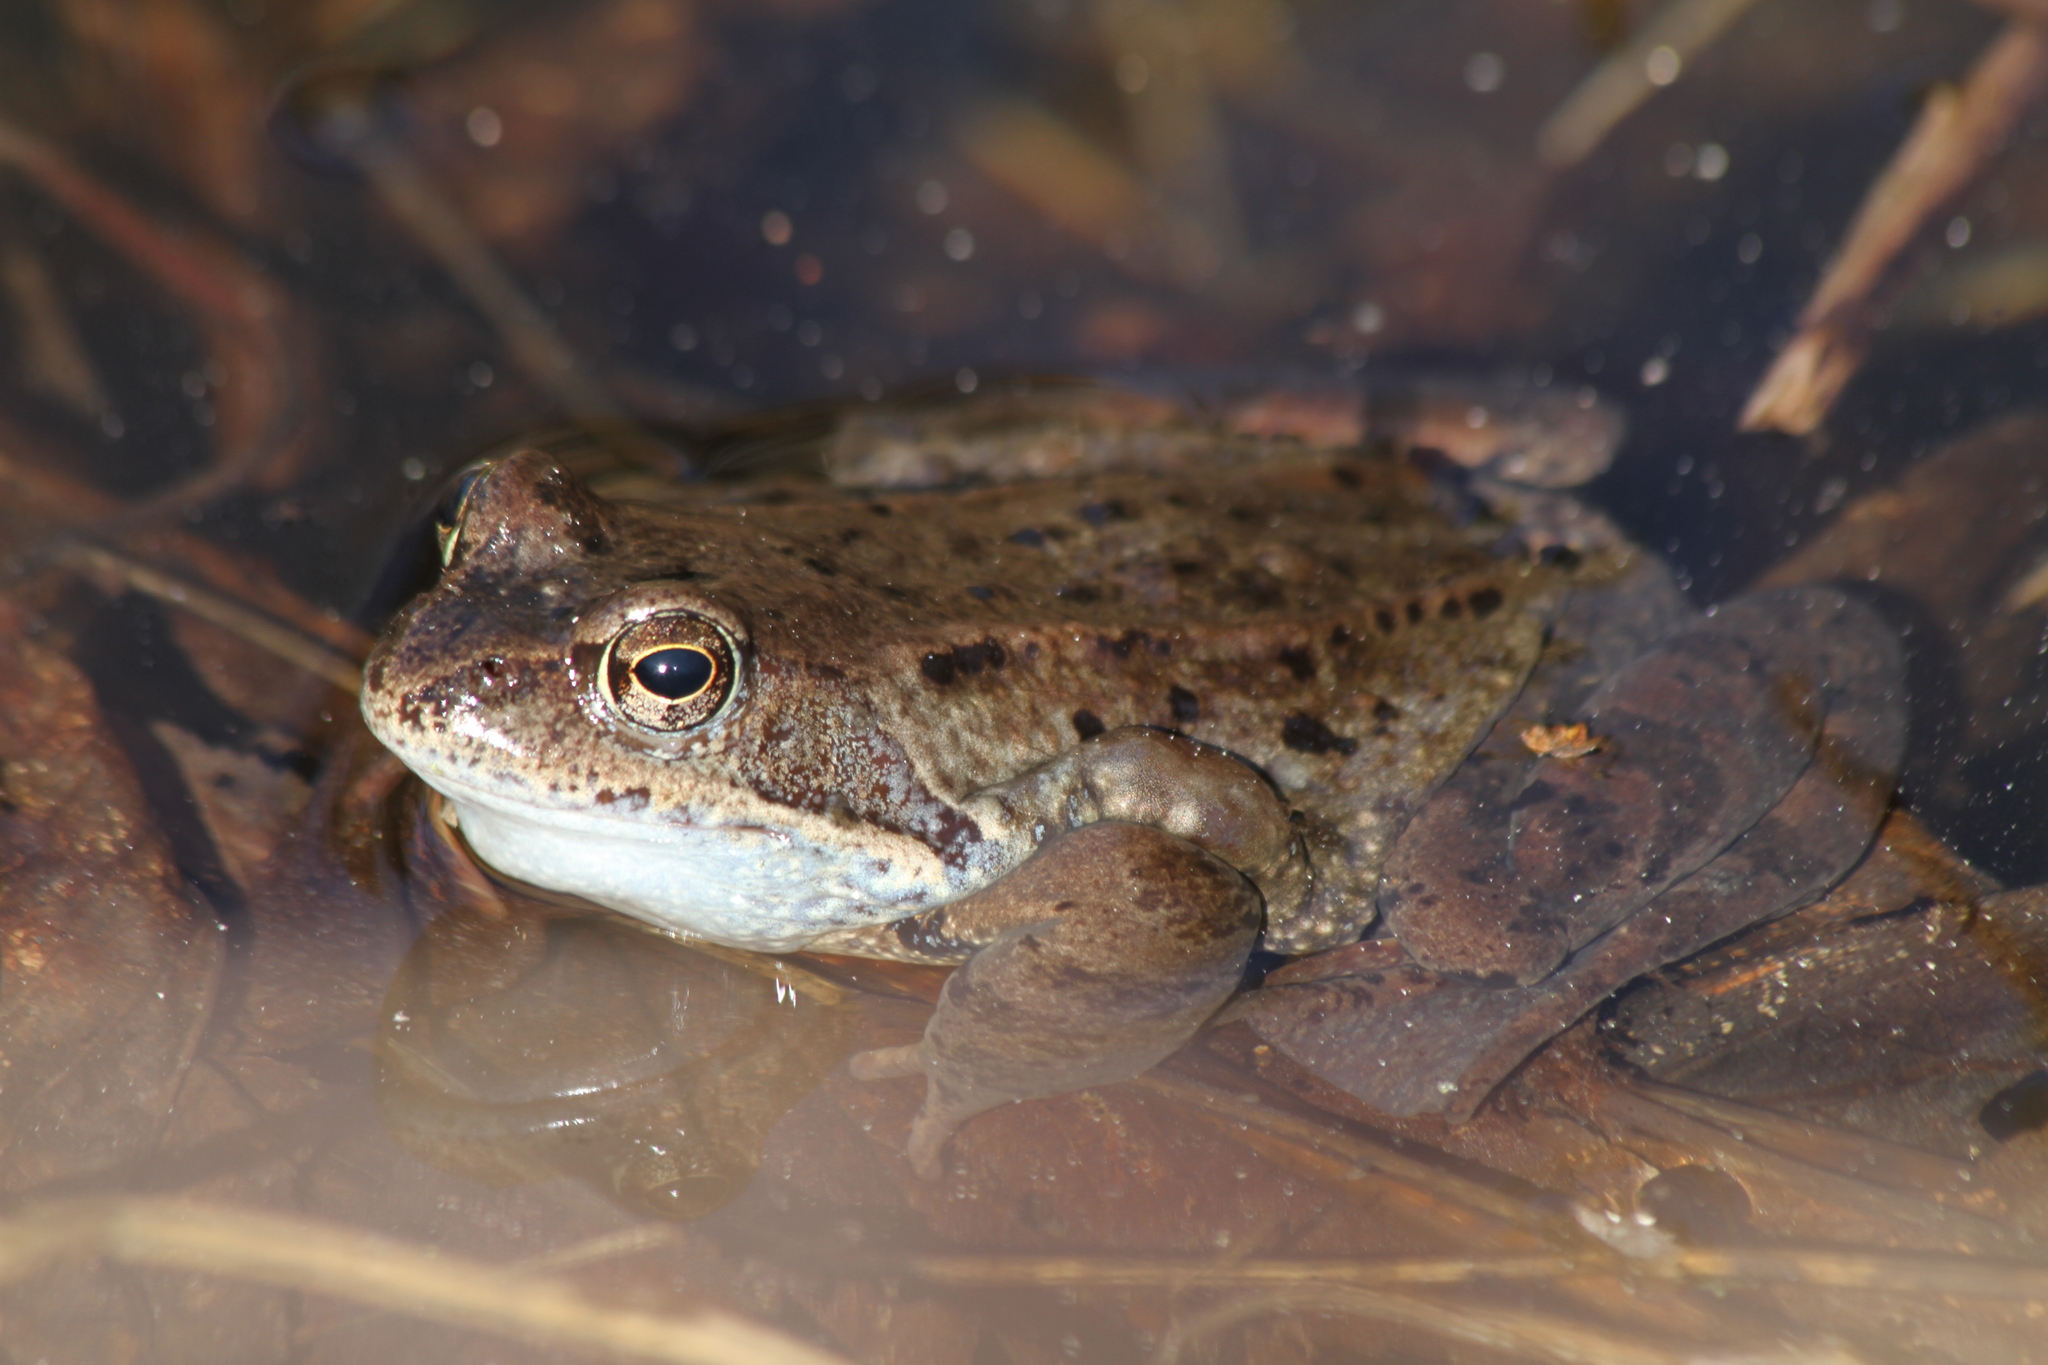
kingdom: Animalia
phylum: Chordata
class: Amphibia
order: Anura
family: Ranidae
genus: Rana
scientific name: Rana temporaria
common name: Common frog
